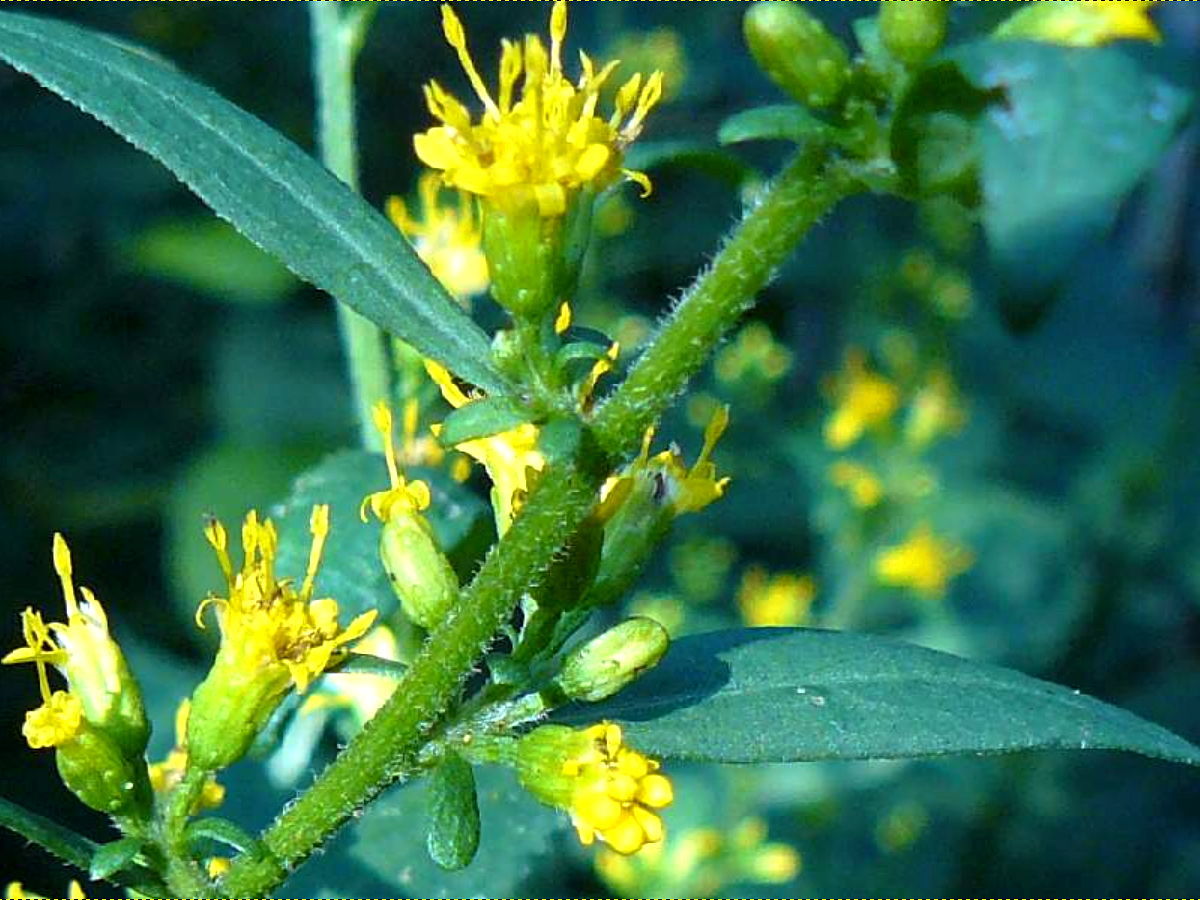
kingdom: Plantae
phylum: Tracheophyta
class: Magnoliopsida
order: Asterales
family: Asteraceae
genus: Solidago
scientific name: Solidago flexicaulis
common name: Zig-zag goldenrod
